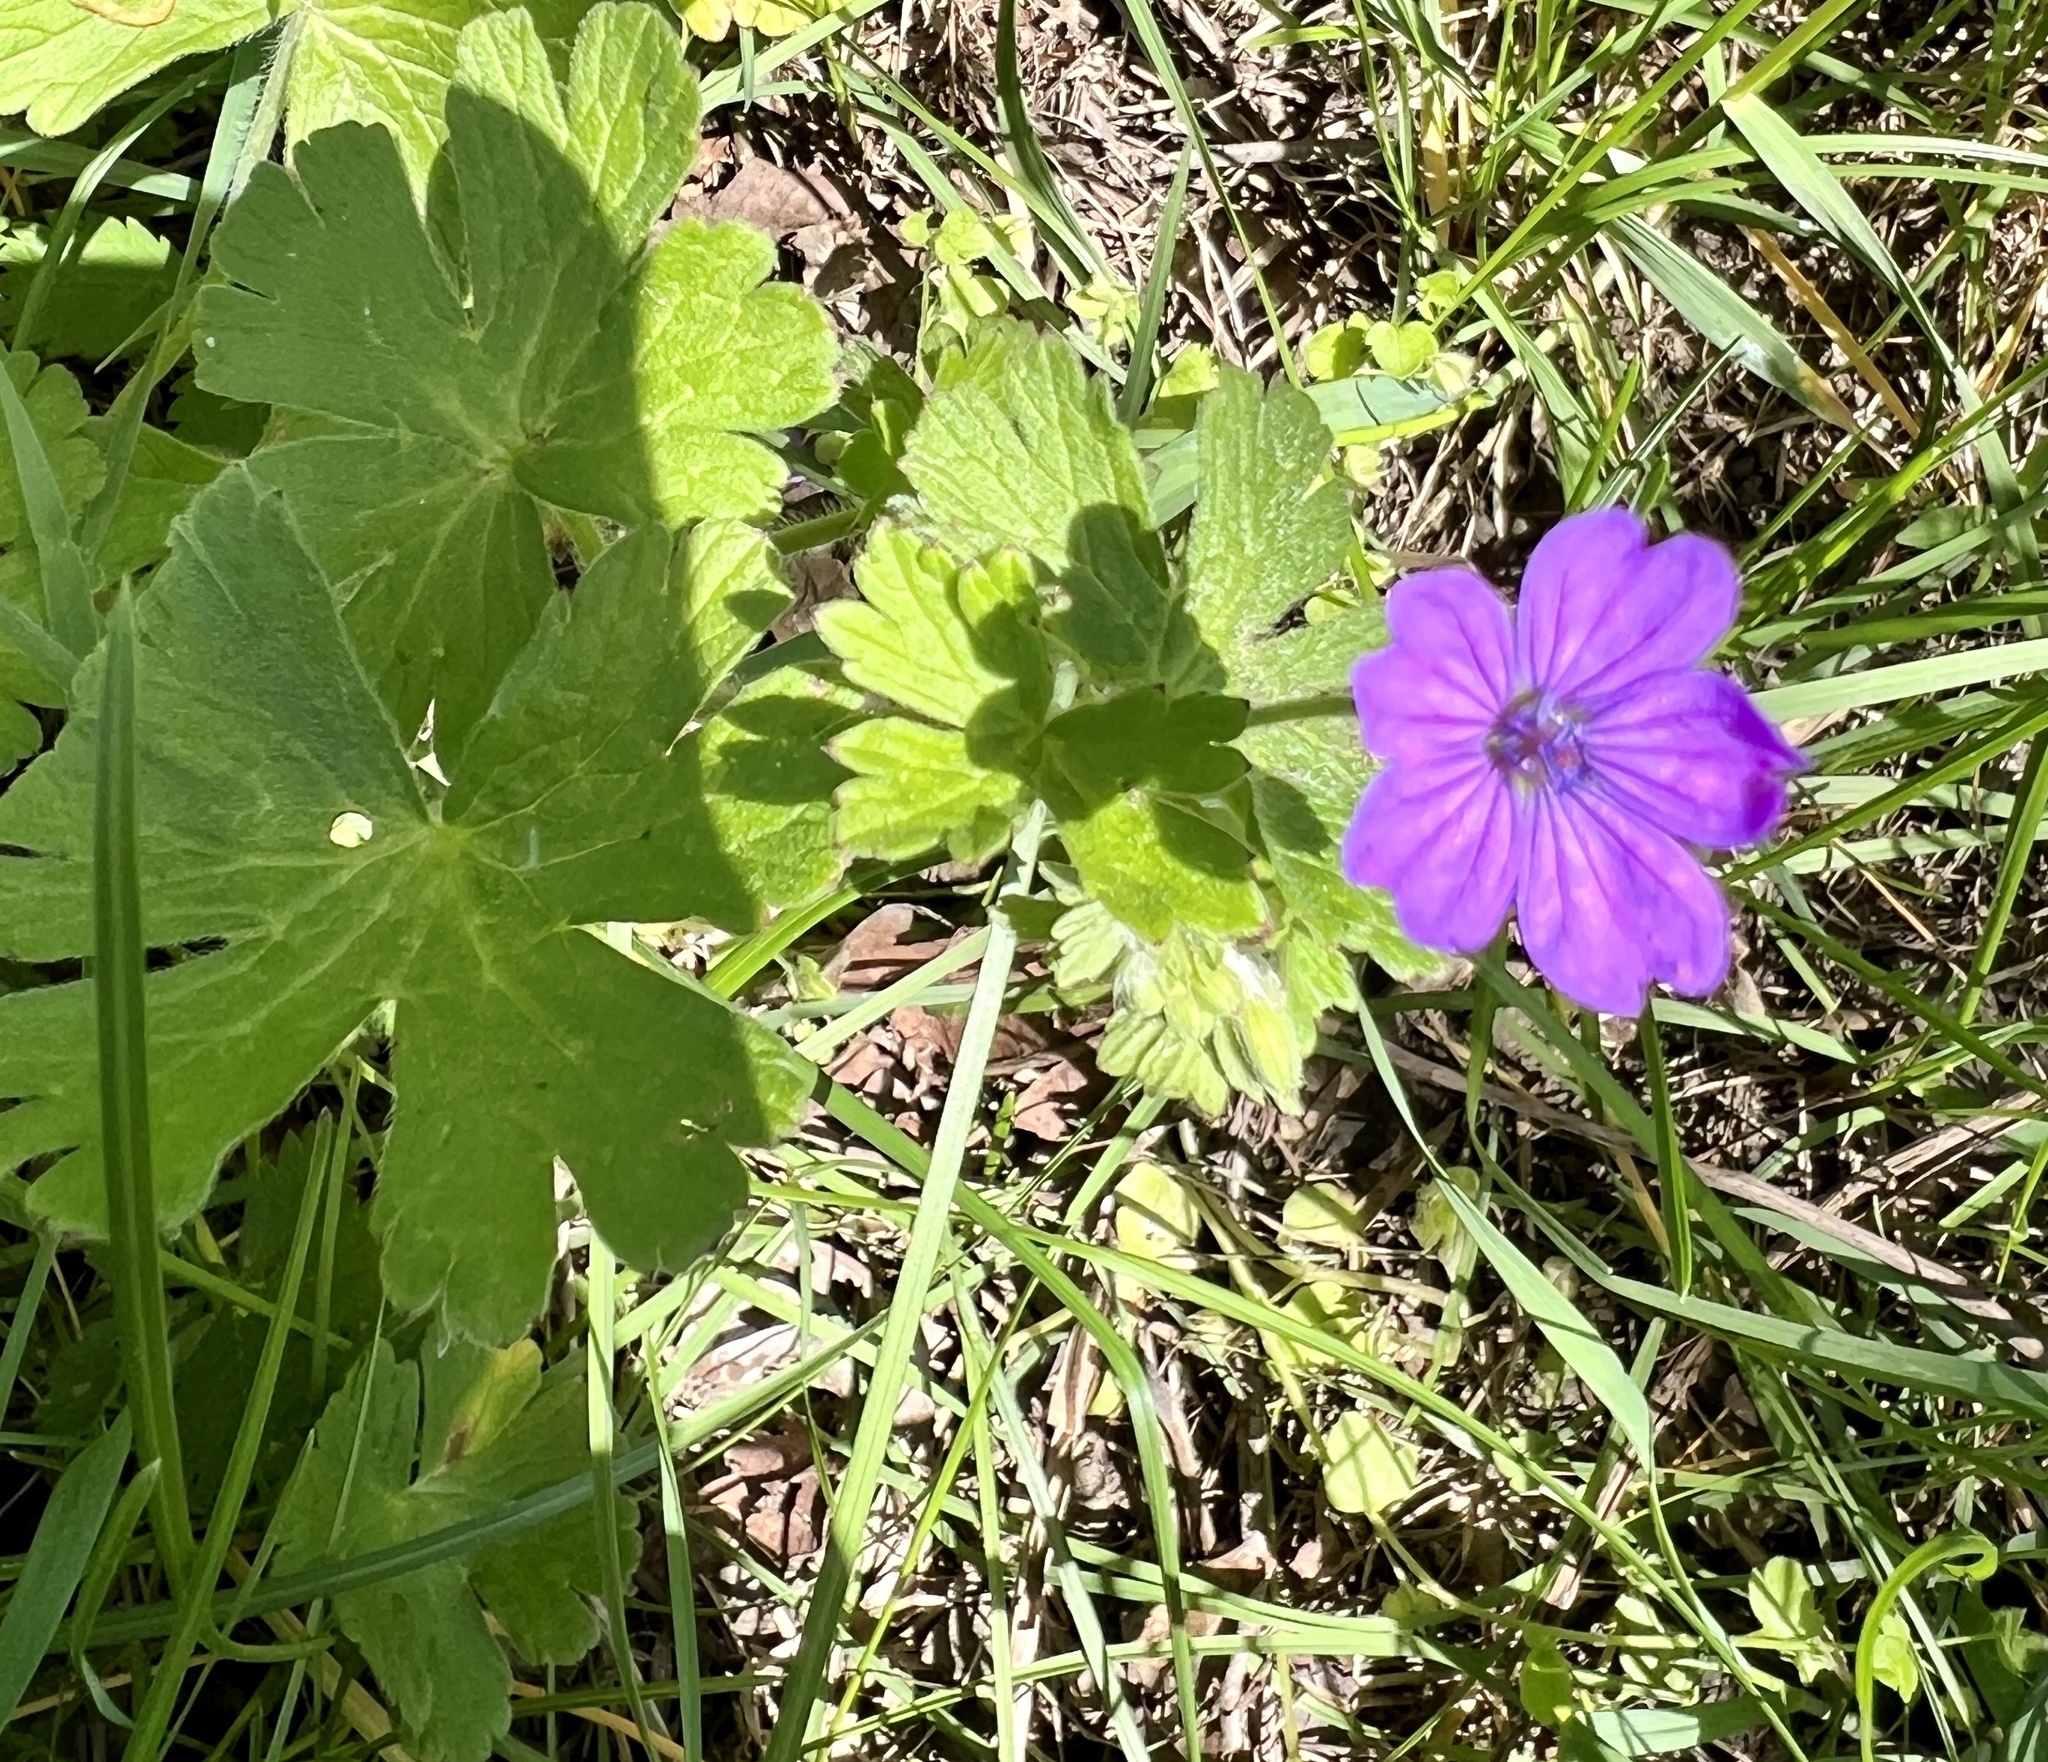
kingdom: Plantae
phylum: Tracheophyta
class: Magnoliopsida
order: Geraniales
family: Geraniaceae
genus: Geranium
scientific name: Geranium pyrenaicum
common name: Hedgerow crane's-bill
